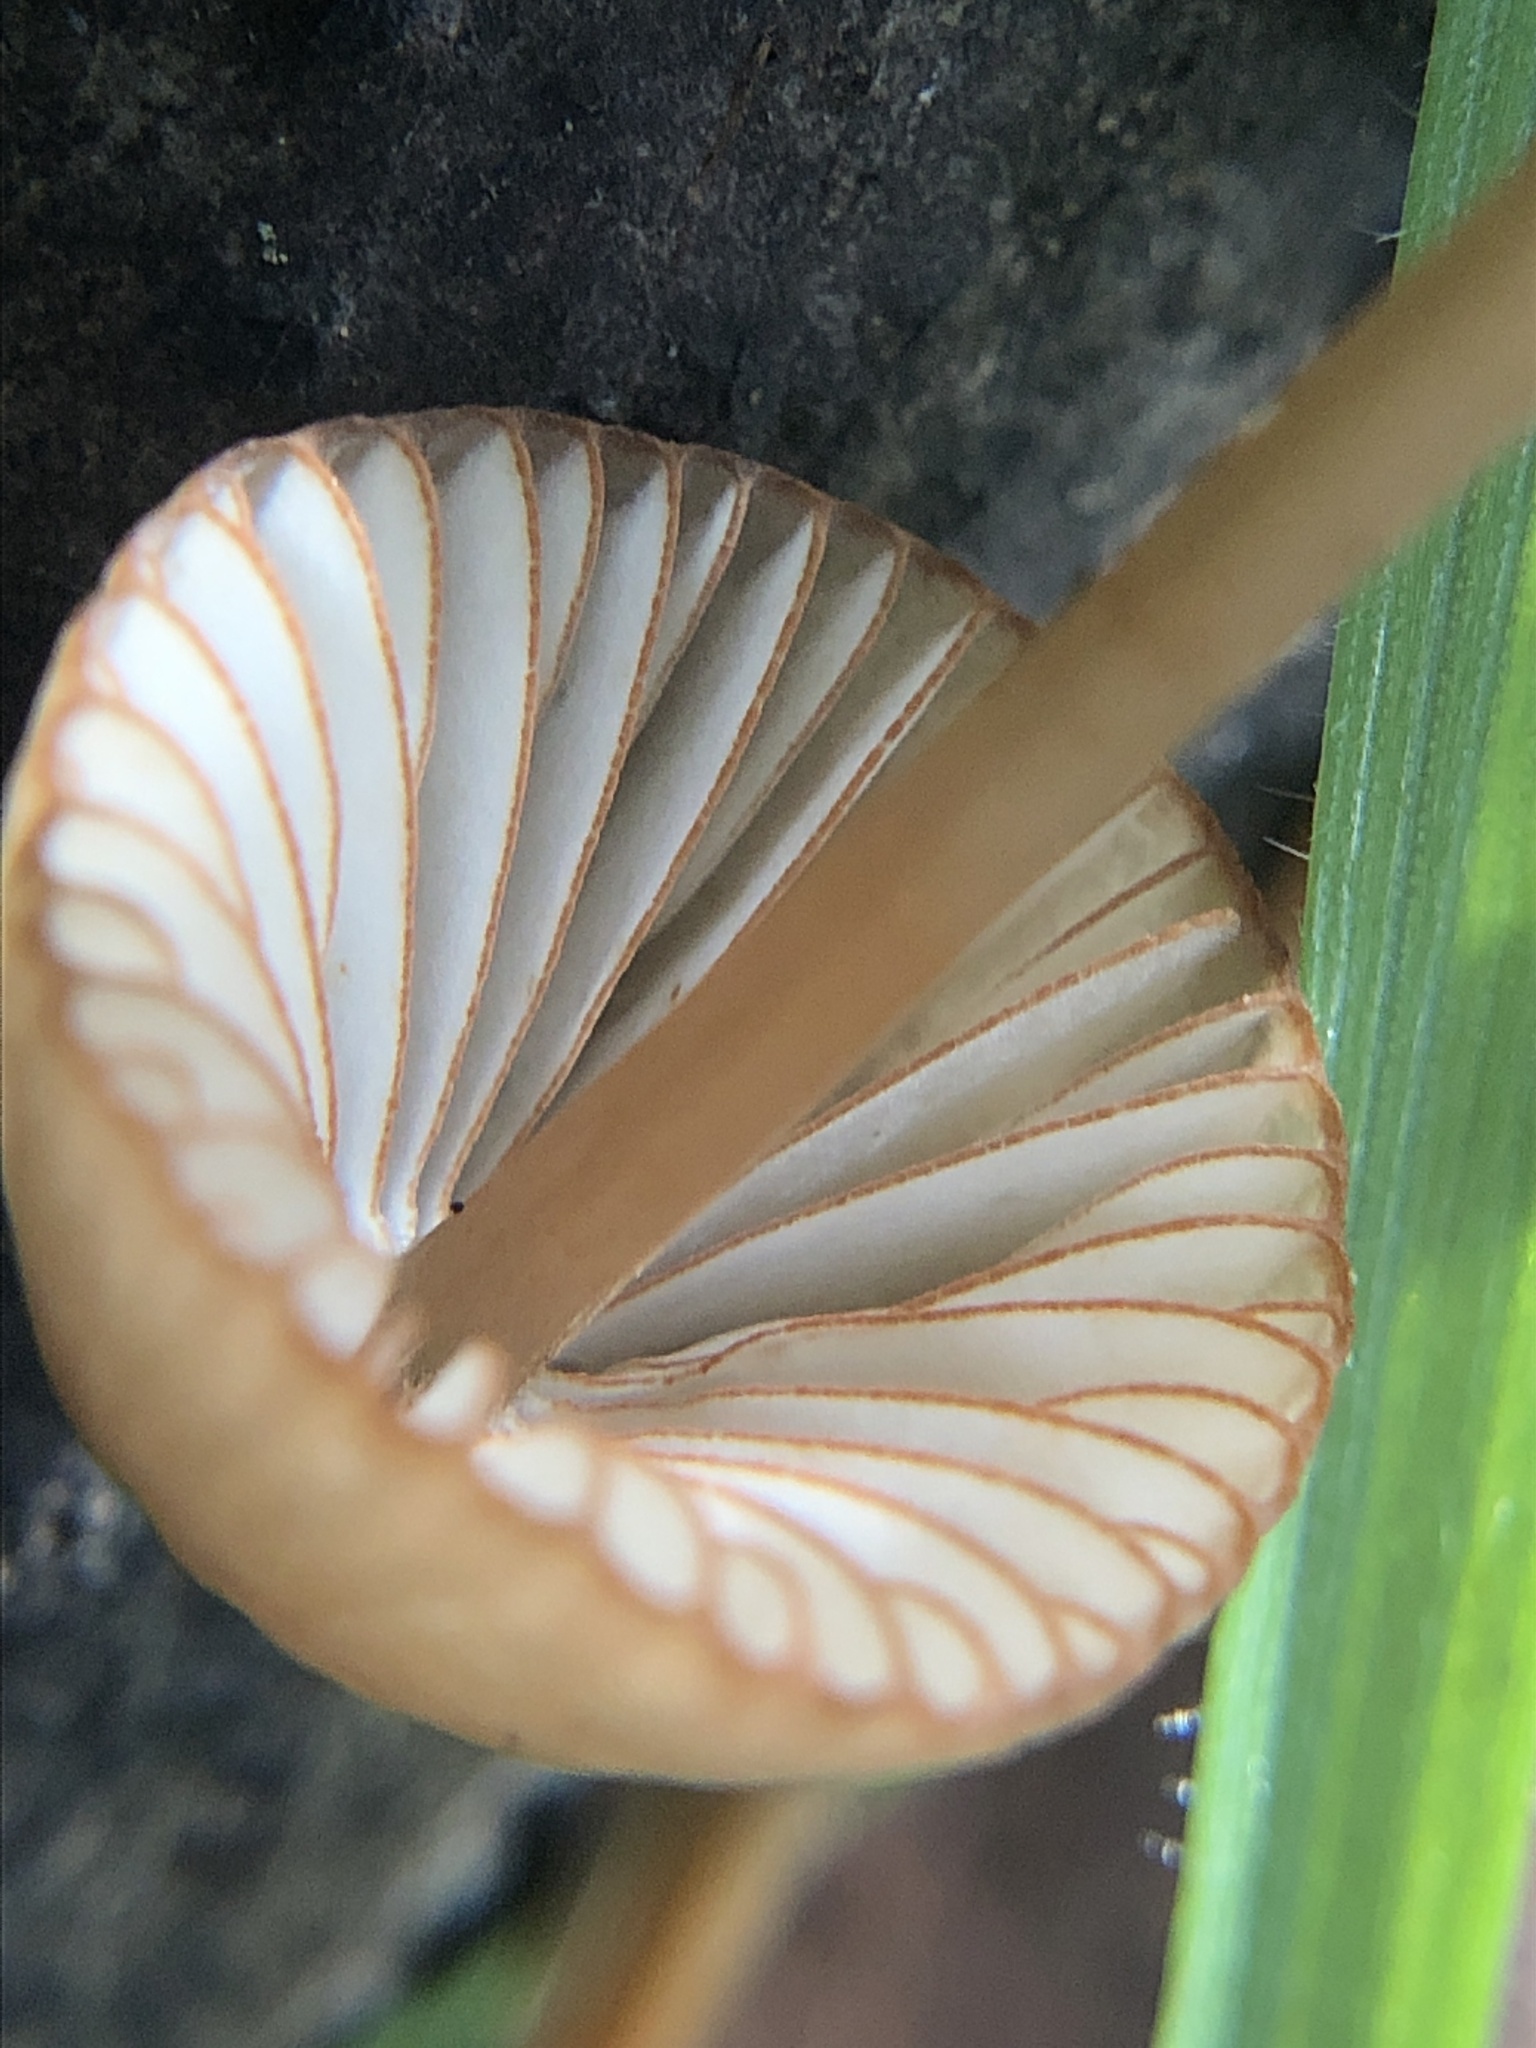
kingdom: Fungi
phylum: Basidiomycota
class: Agaricomycetes
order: Agaricales
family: Mycenaceae
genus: Mycena
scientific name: Mycena
